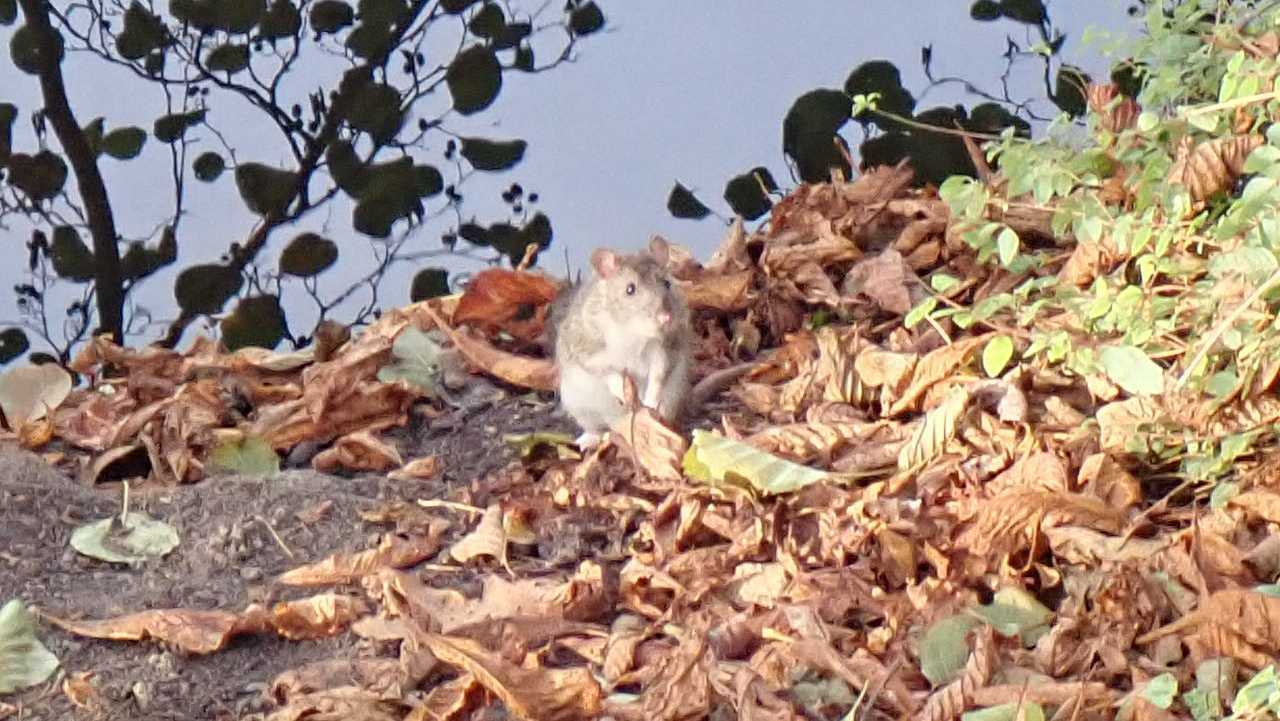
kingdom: Animalia
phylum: Chordata
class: Mammalia
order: Rodentia
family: Muridae
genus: Rattus
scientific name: Rattus norvegicus
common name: Brown rat
